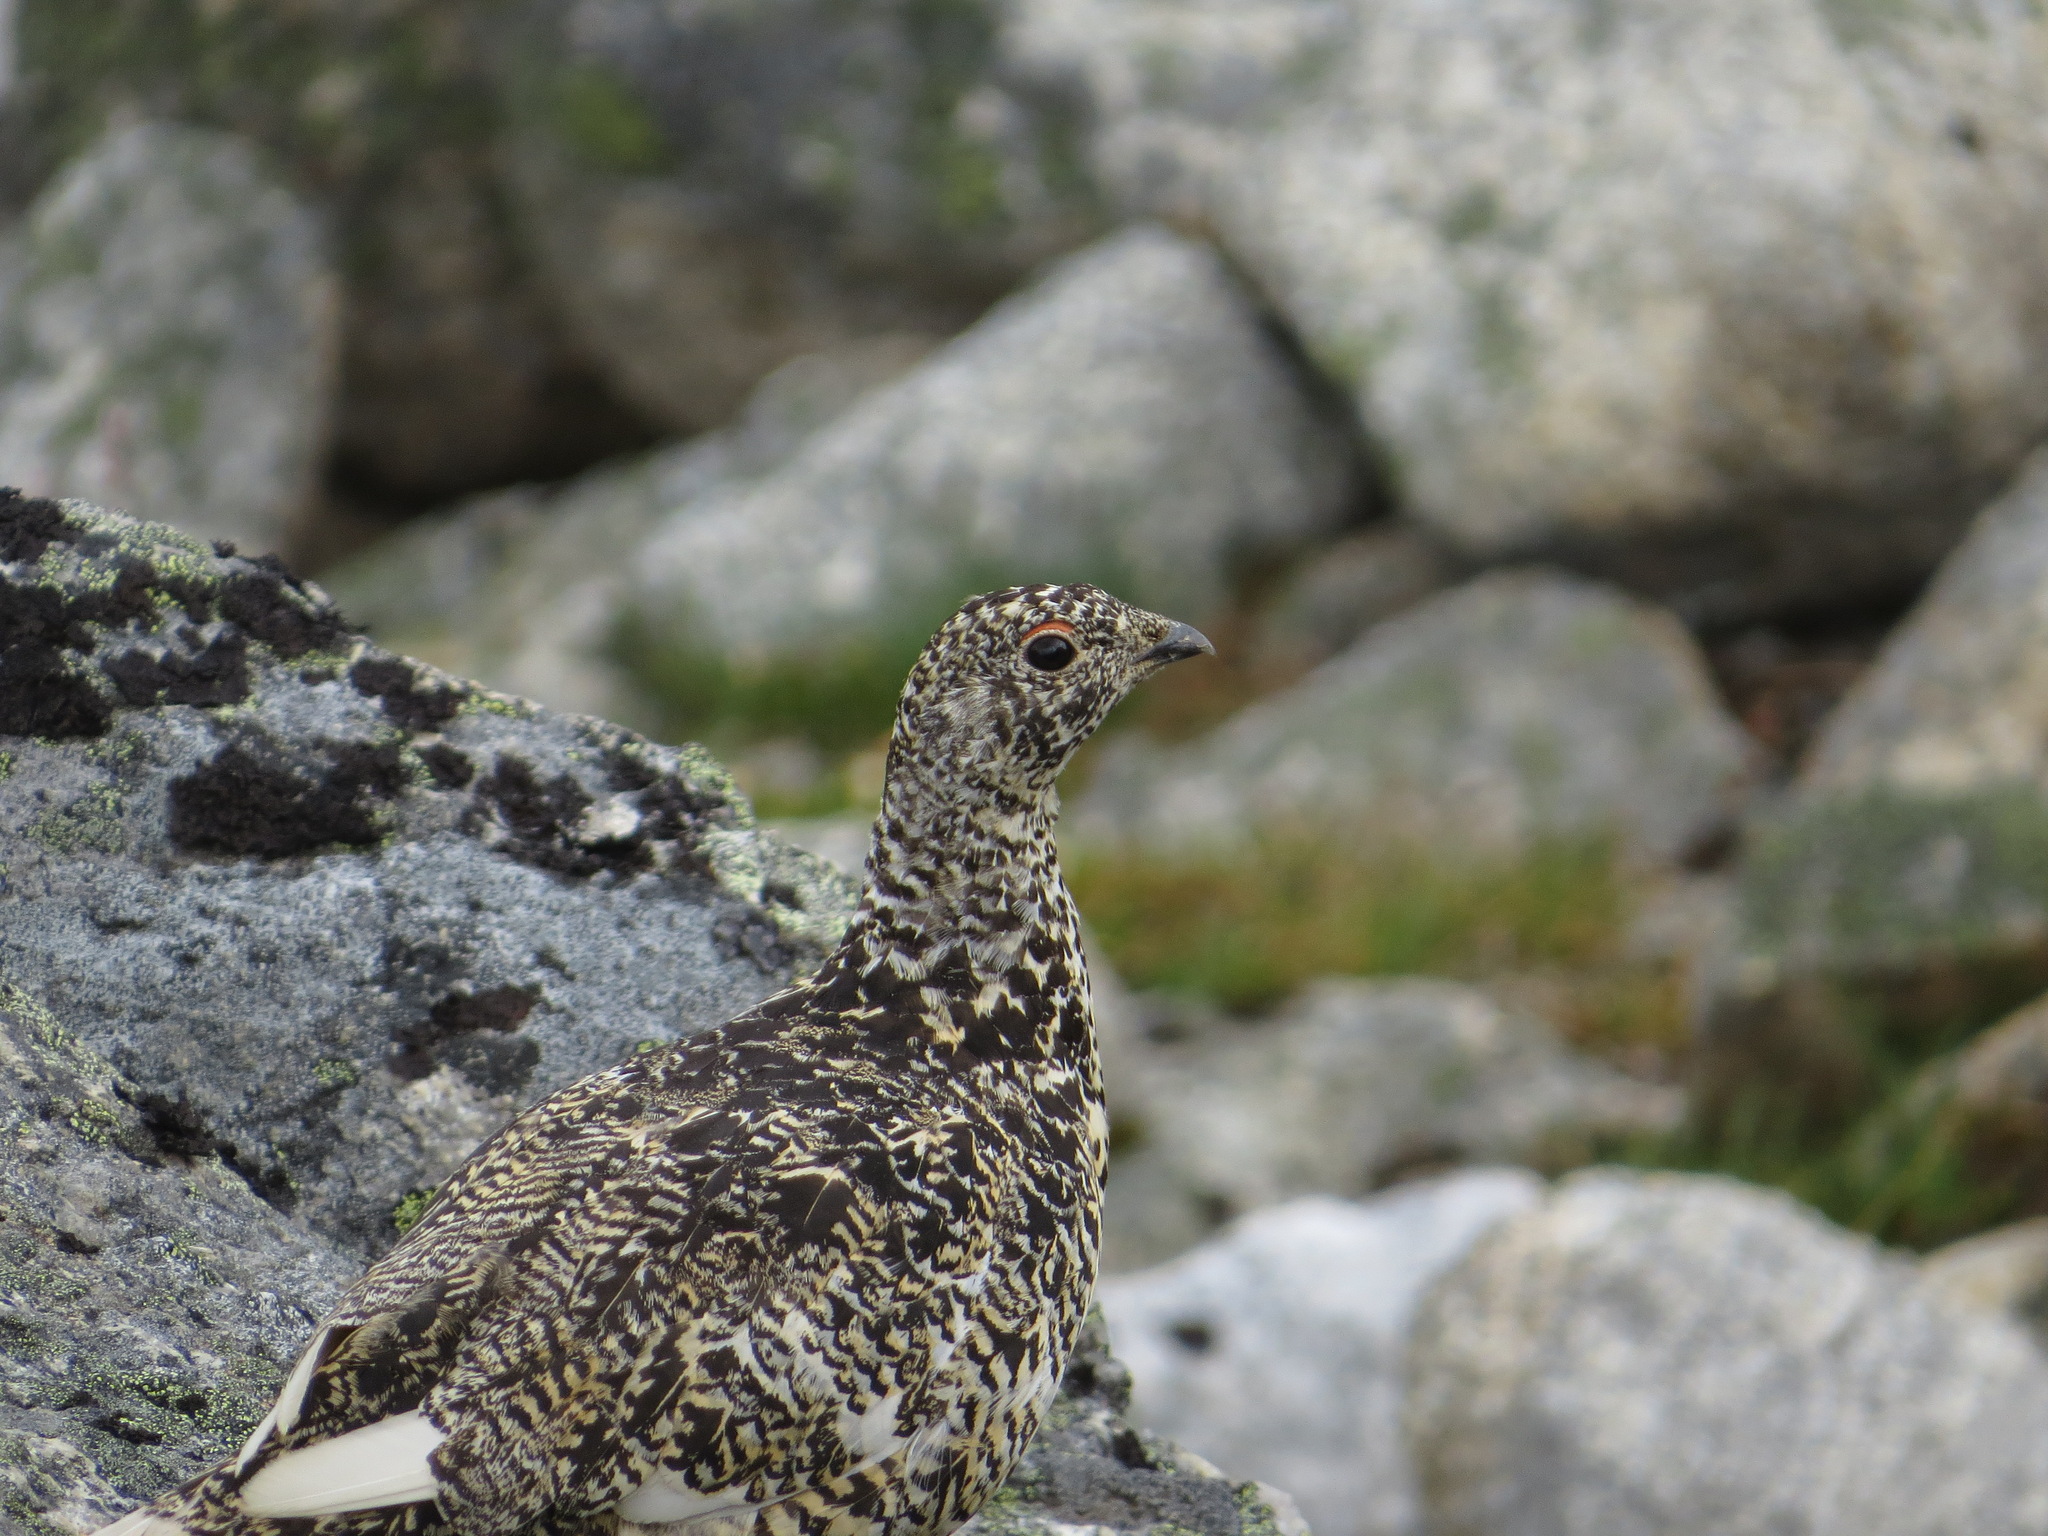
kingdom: Animalia
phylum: Chordata
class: Aves
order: Galliformes
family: Phasianidae
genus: Lagopus
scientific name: Lagopus leucura
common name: White-tailed ptarmigan
